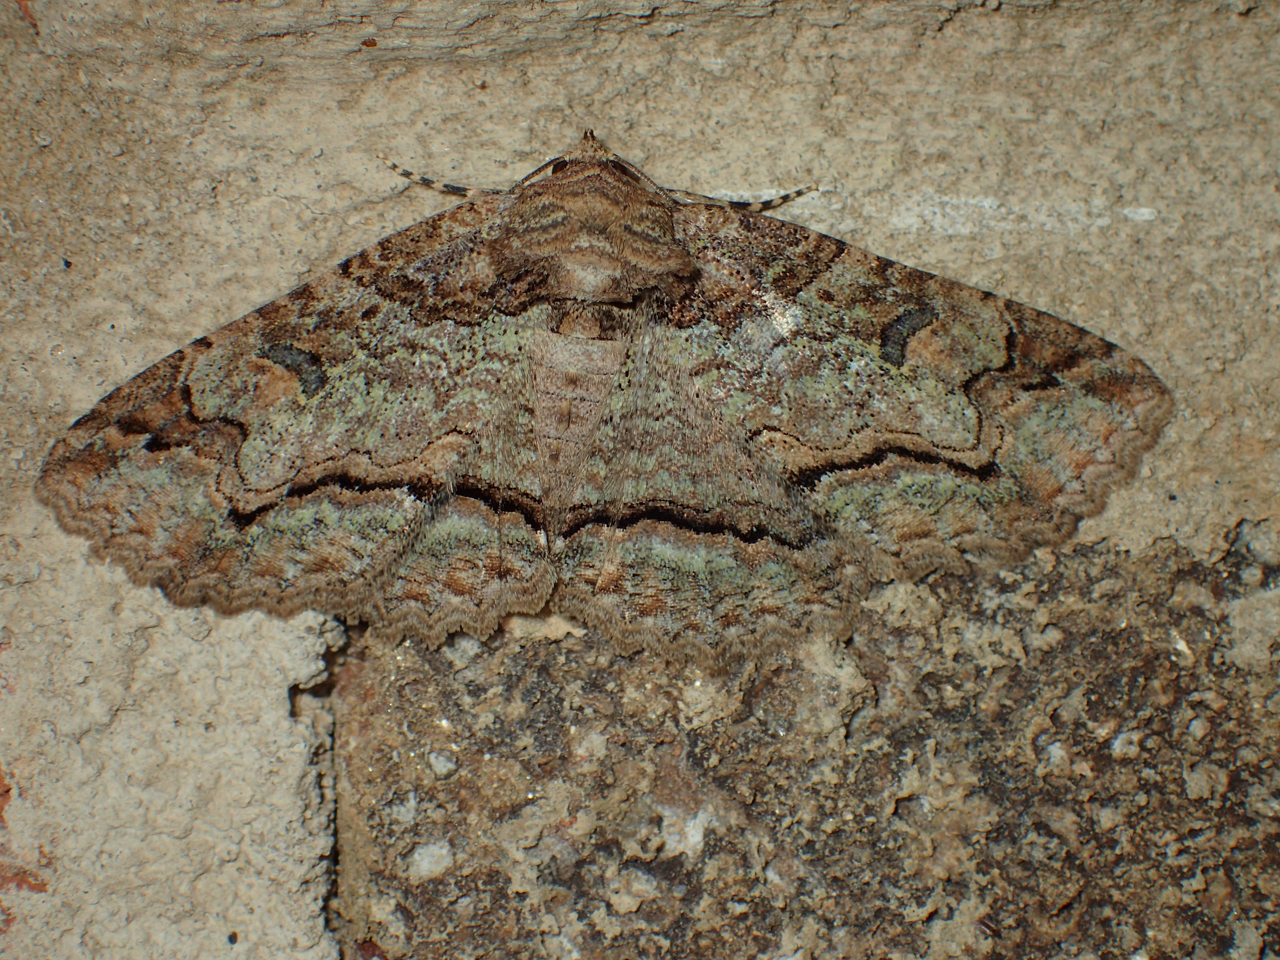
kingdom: Animalia
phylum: Arthropoda
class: Insecta
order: Lepidoptera
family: Erebidae
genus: Zale
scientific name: Zale galbanata
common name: Maple zale
